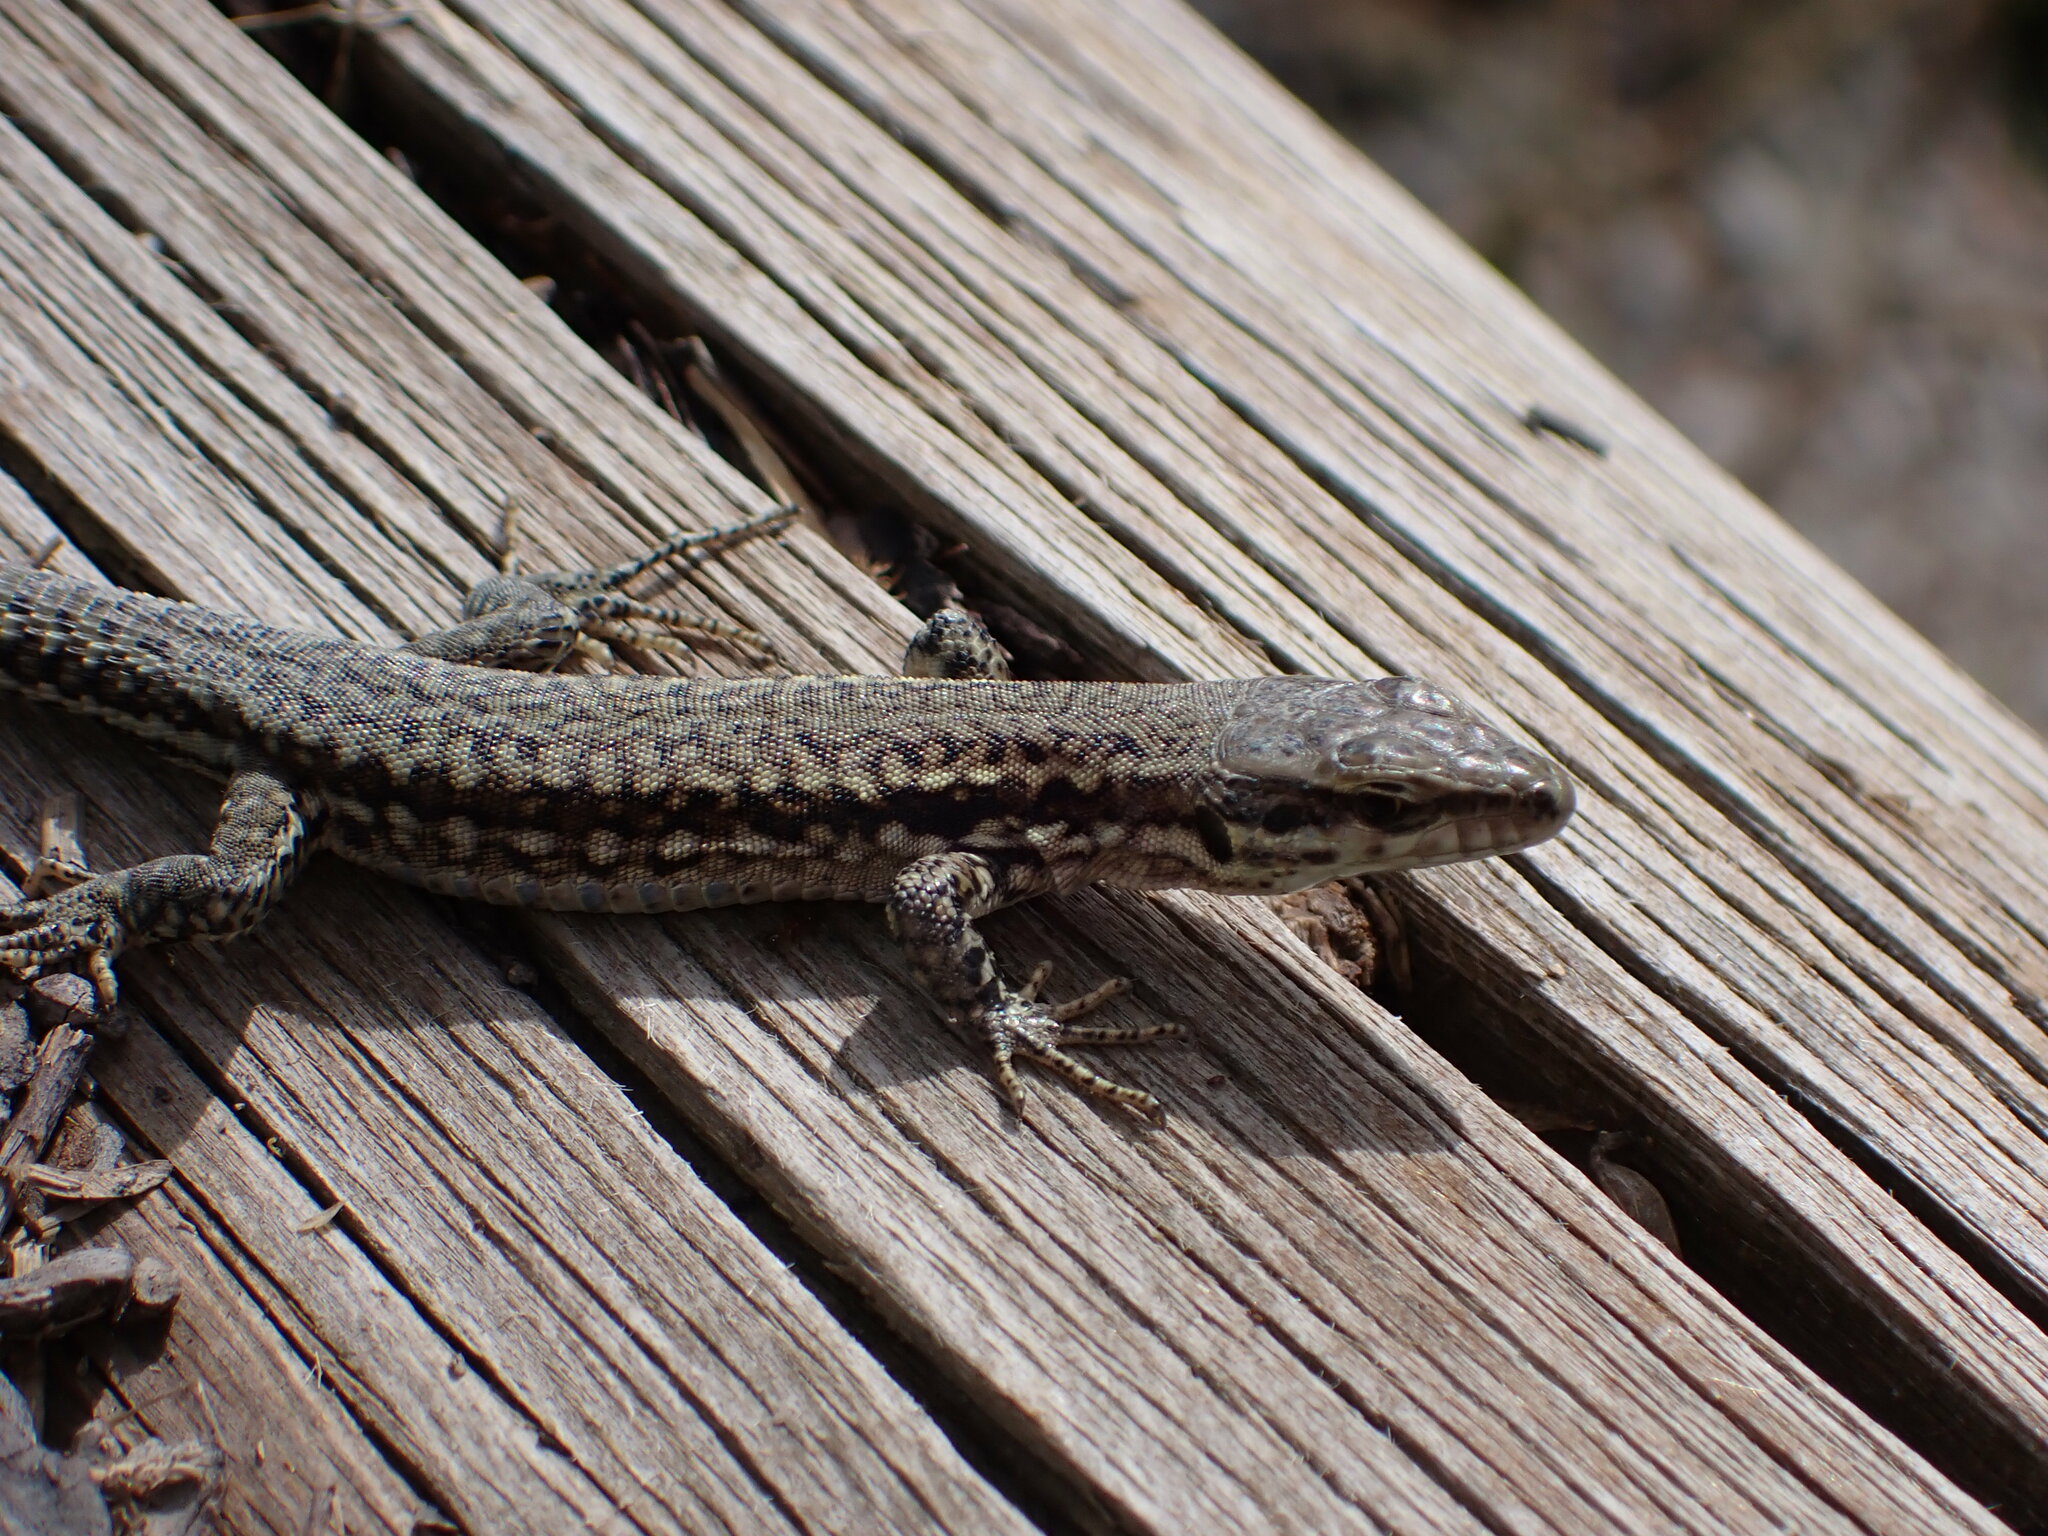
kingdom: Animalia
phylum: Chordata
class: Squamata
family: Lacertidae
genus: Podarcis
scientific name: Podarcis muralis
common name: Common wall lizard
